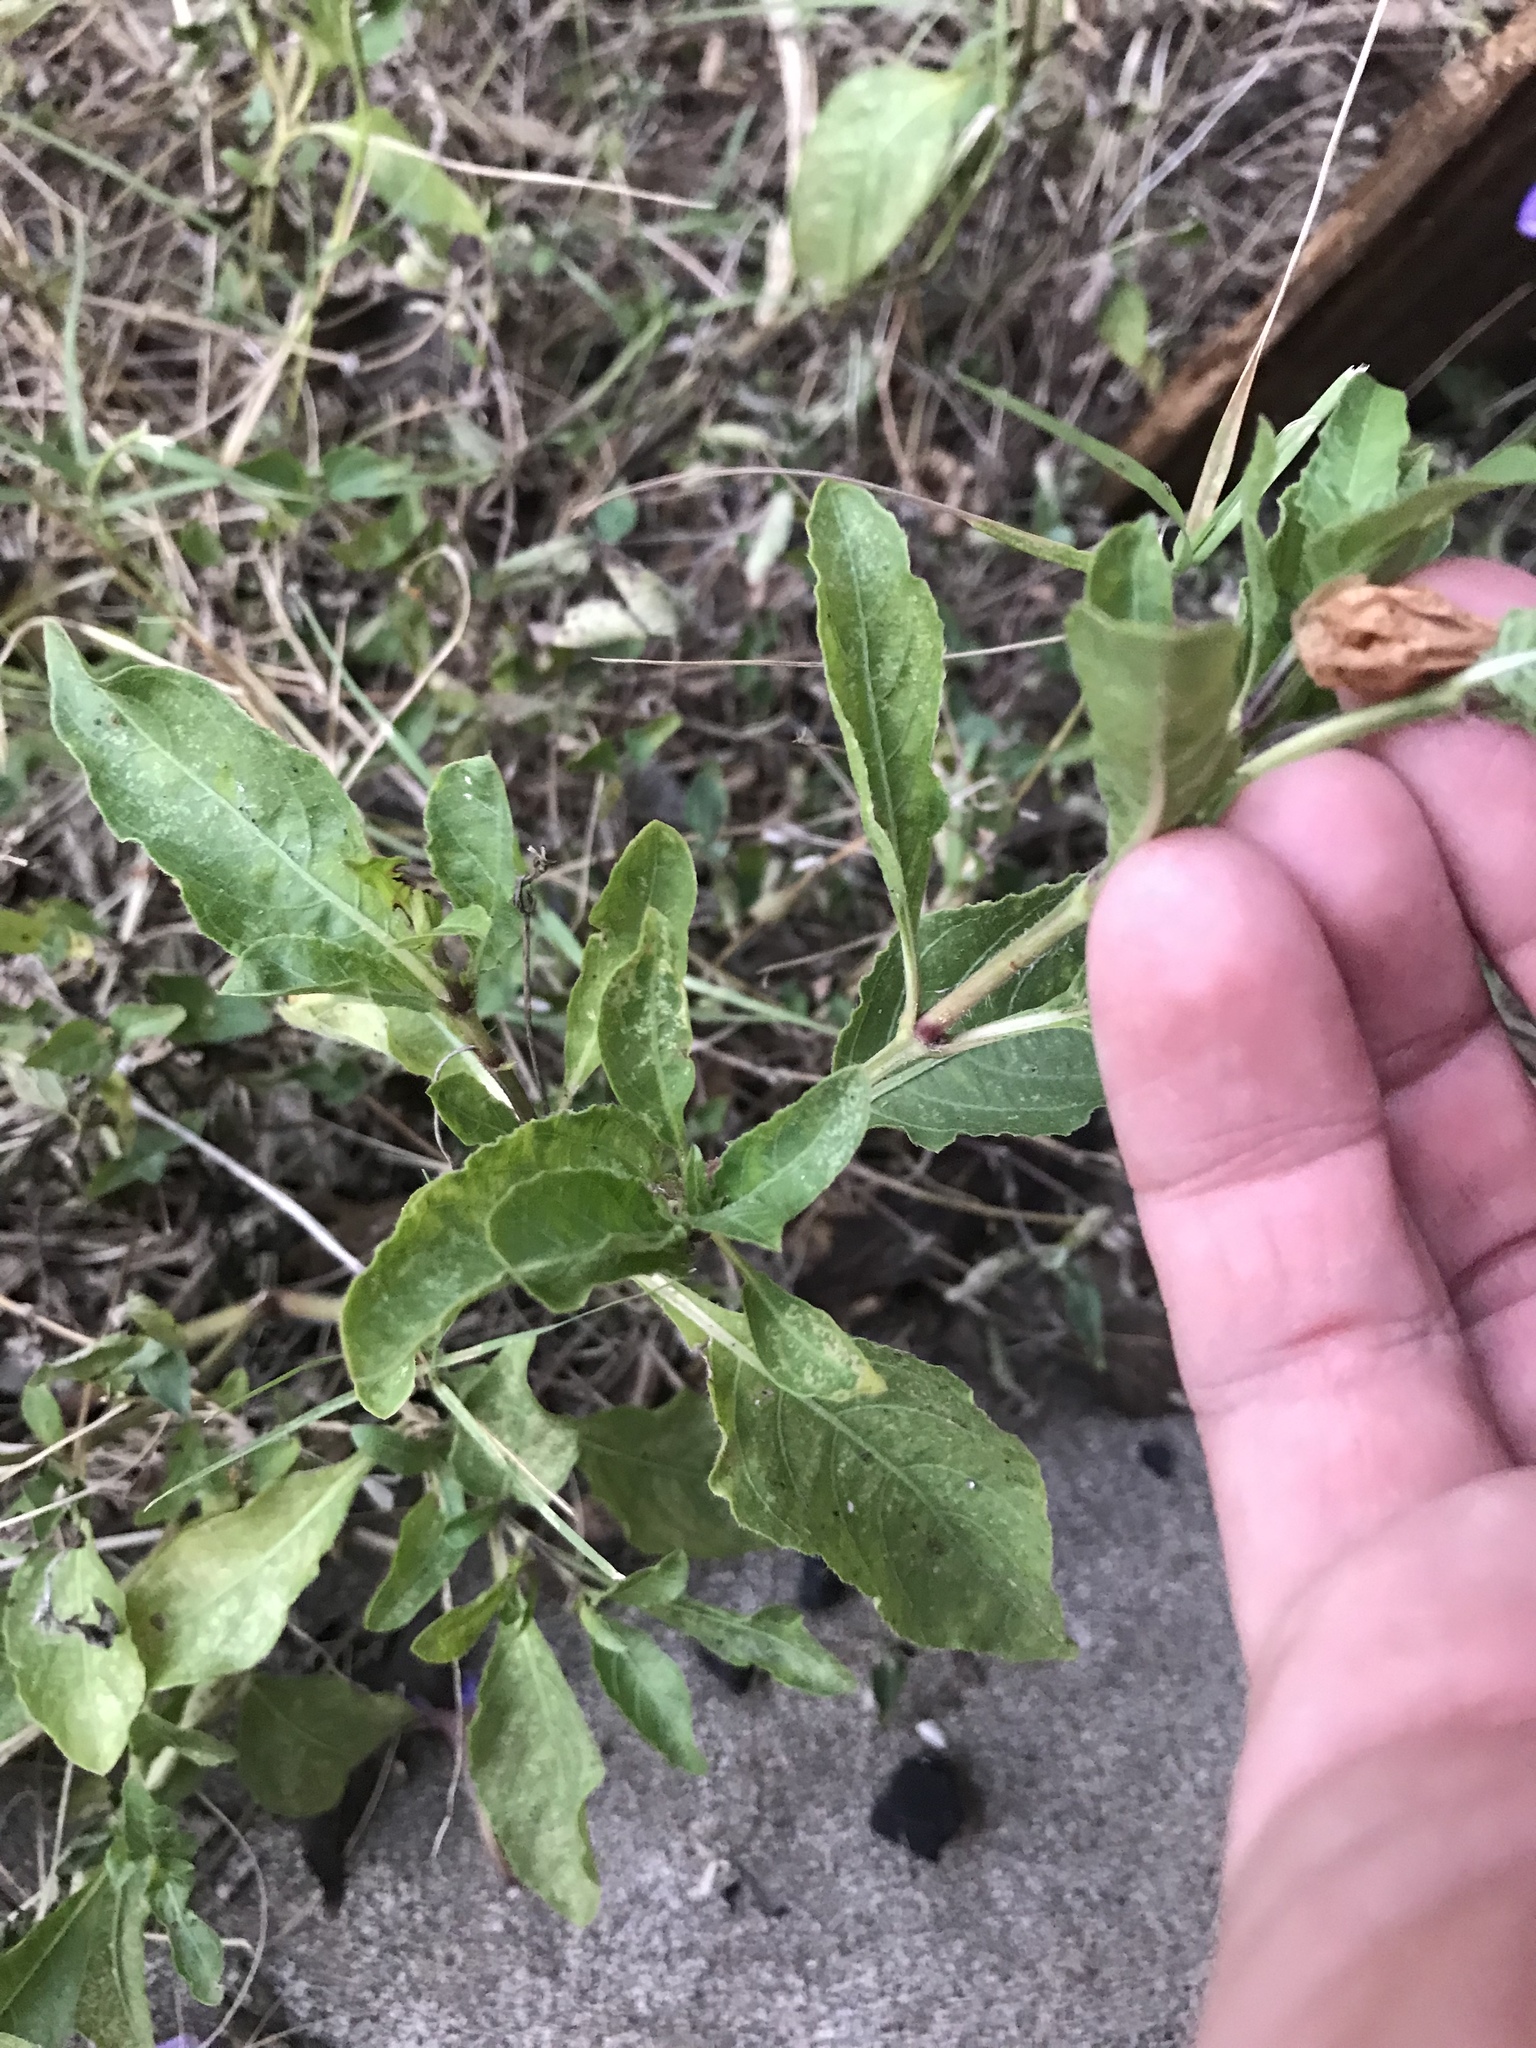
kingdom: Plantae
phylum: Tracheophyta
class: Magnoliopsida
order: Lamiales
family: Acanthaceae
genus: Ruellia
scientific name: Ruellia ciliatiflora
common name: Hairyflower wild petunia
